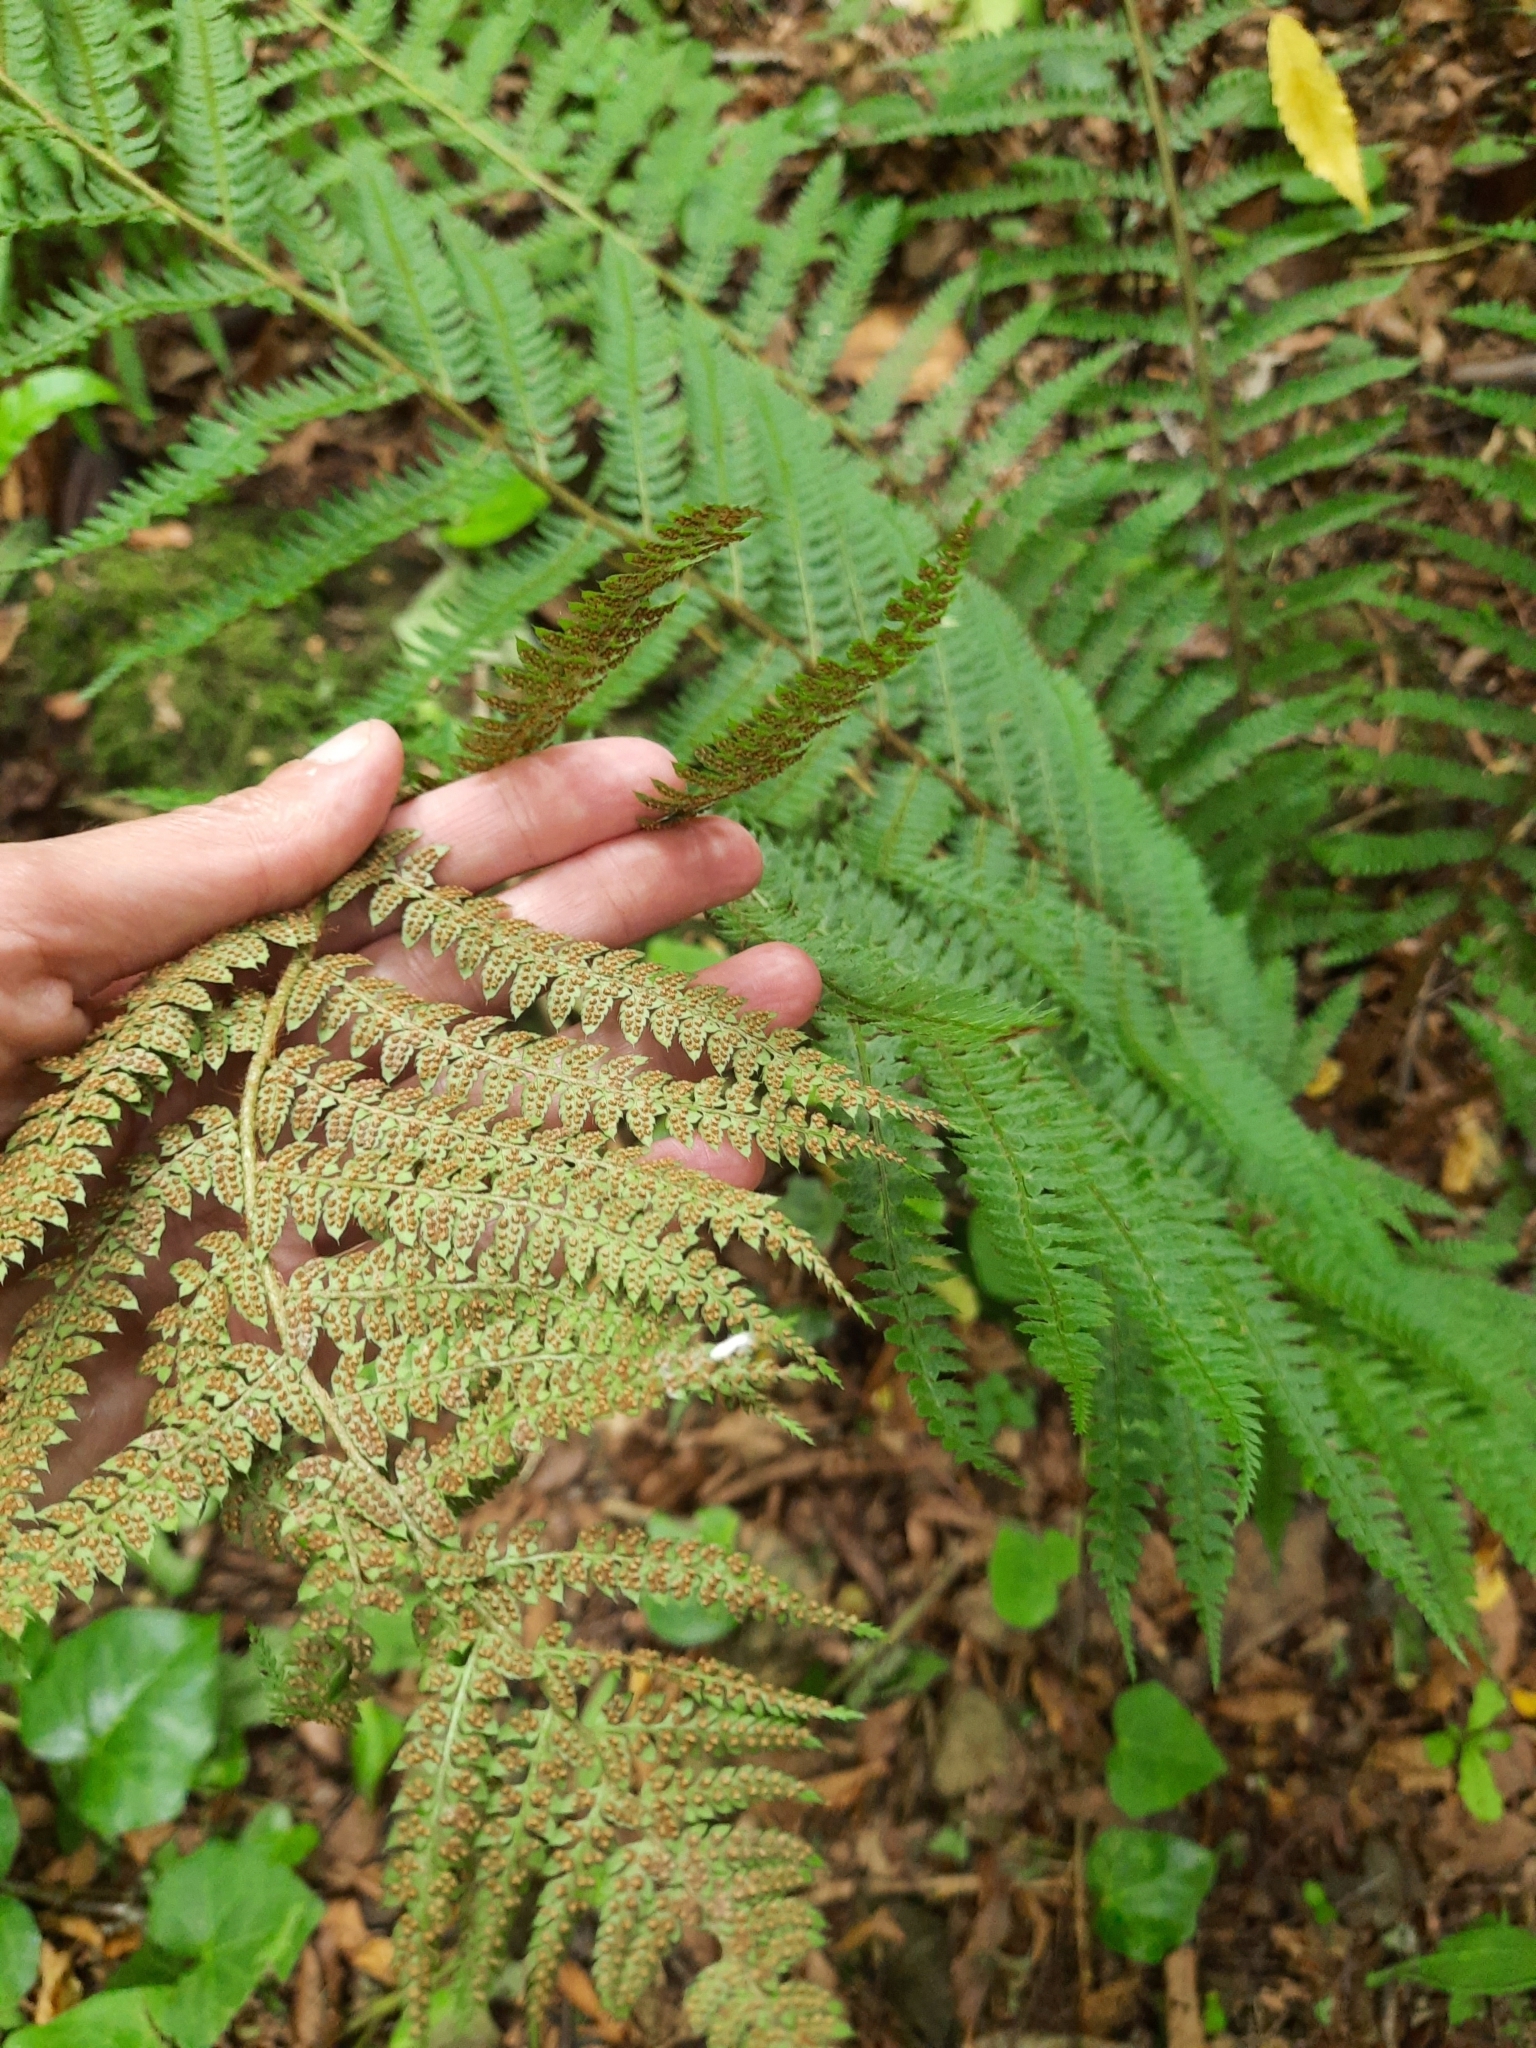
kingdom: Plantae
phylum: Tracheophyta
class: Polypodiopsida
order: Polypodiales
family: Dryopteridaceae
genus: Polystichum
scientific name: Polystichum setiferum
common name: Soft shield-fern
